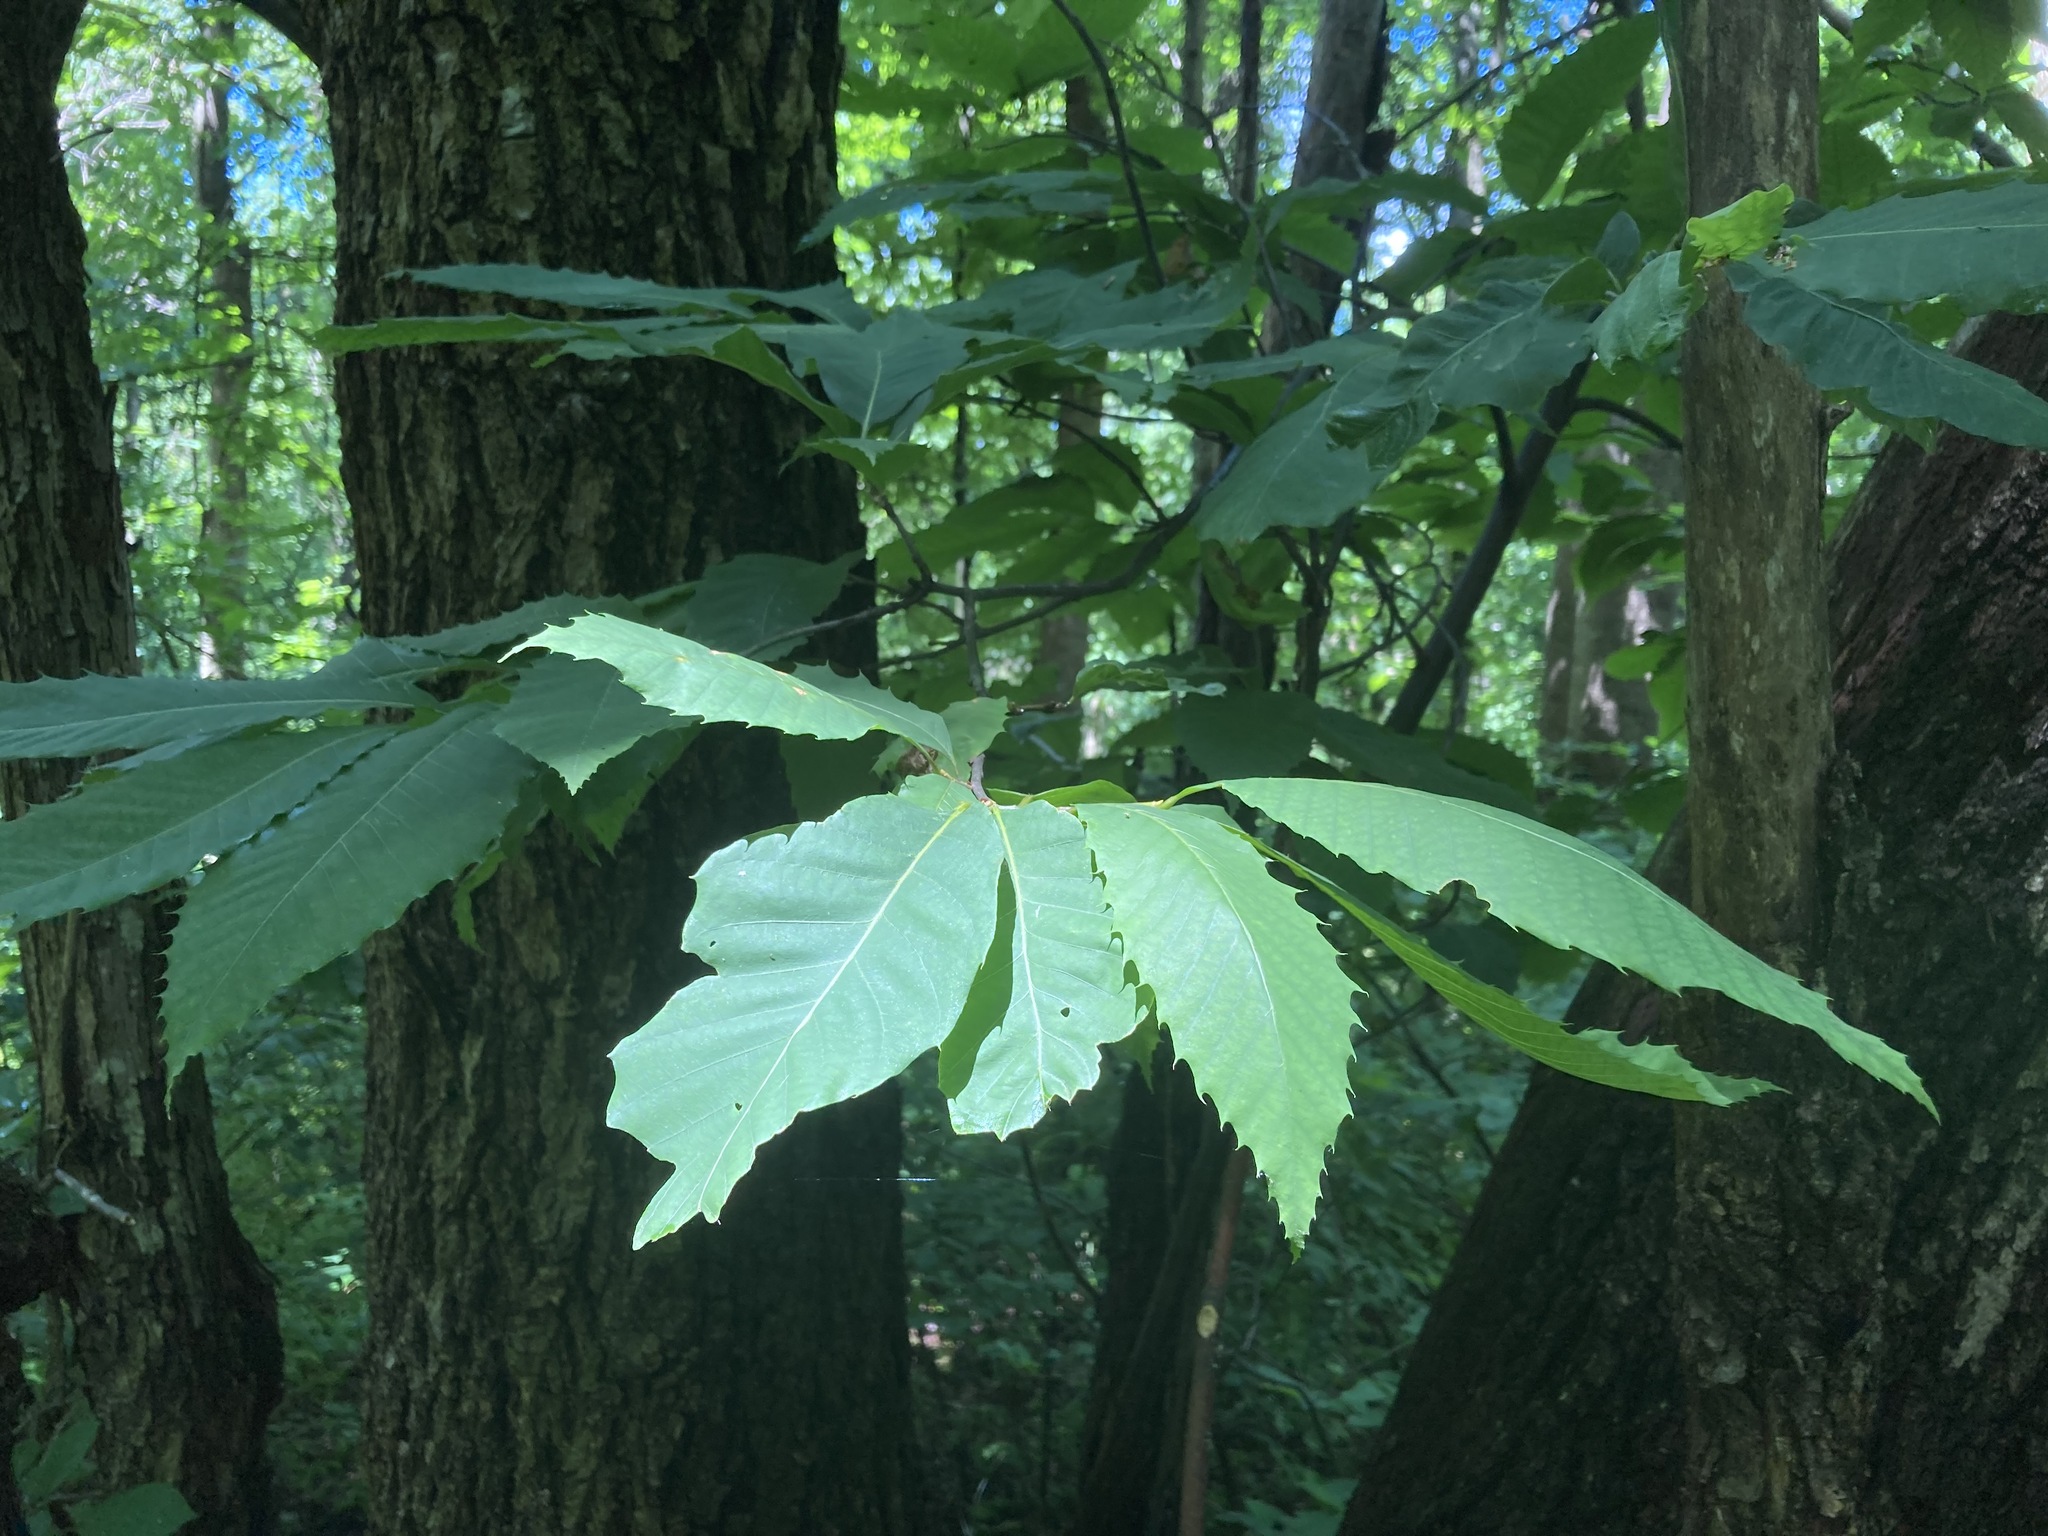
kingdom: Plantae
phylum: Tracheophyta
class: Magnoliopsida
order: Fagales
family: Fagaceae
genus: Castanea
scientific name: Castanea dentata
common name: American chestnut
